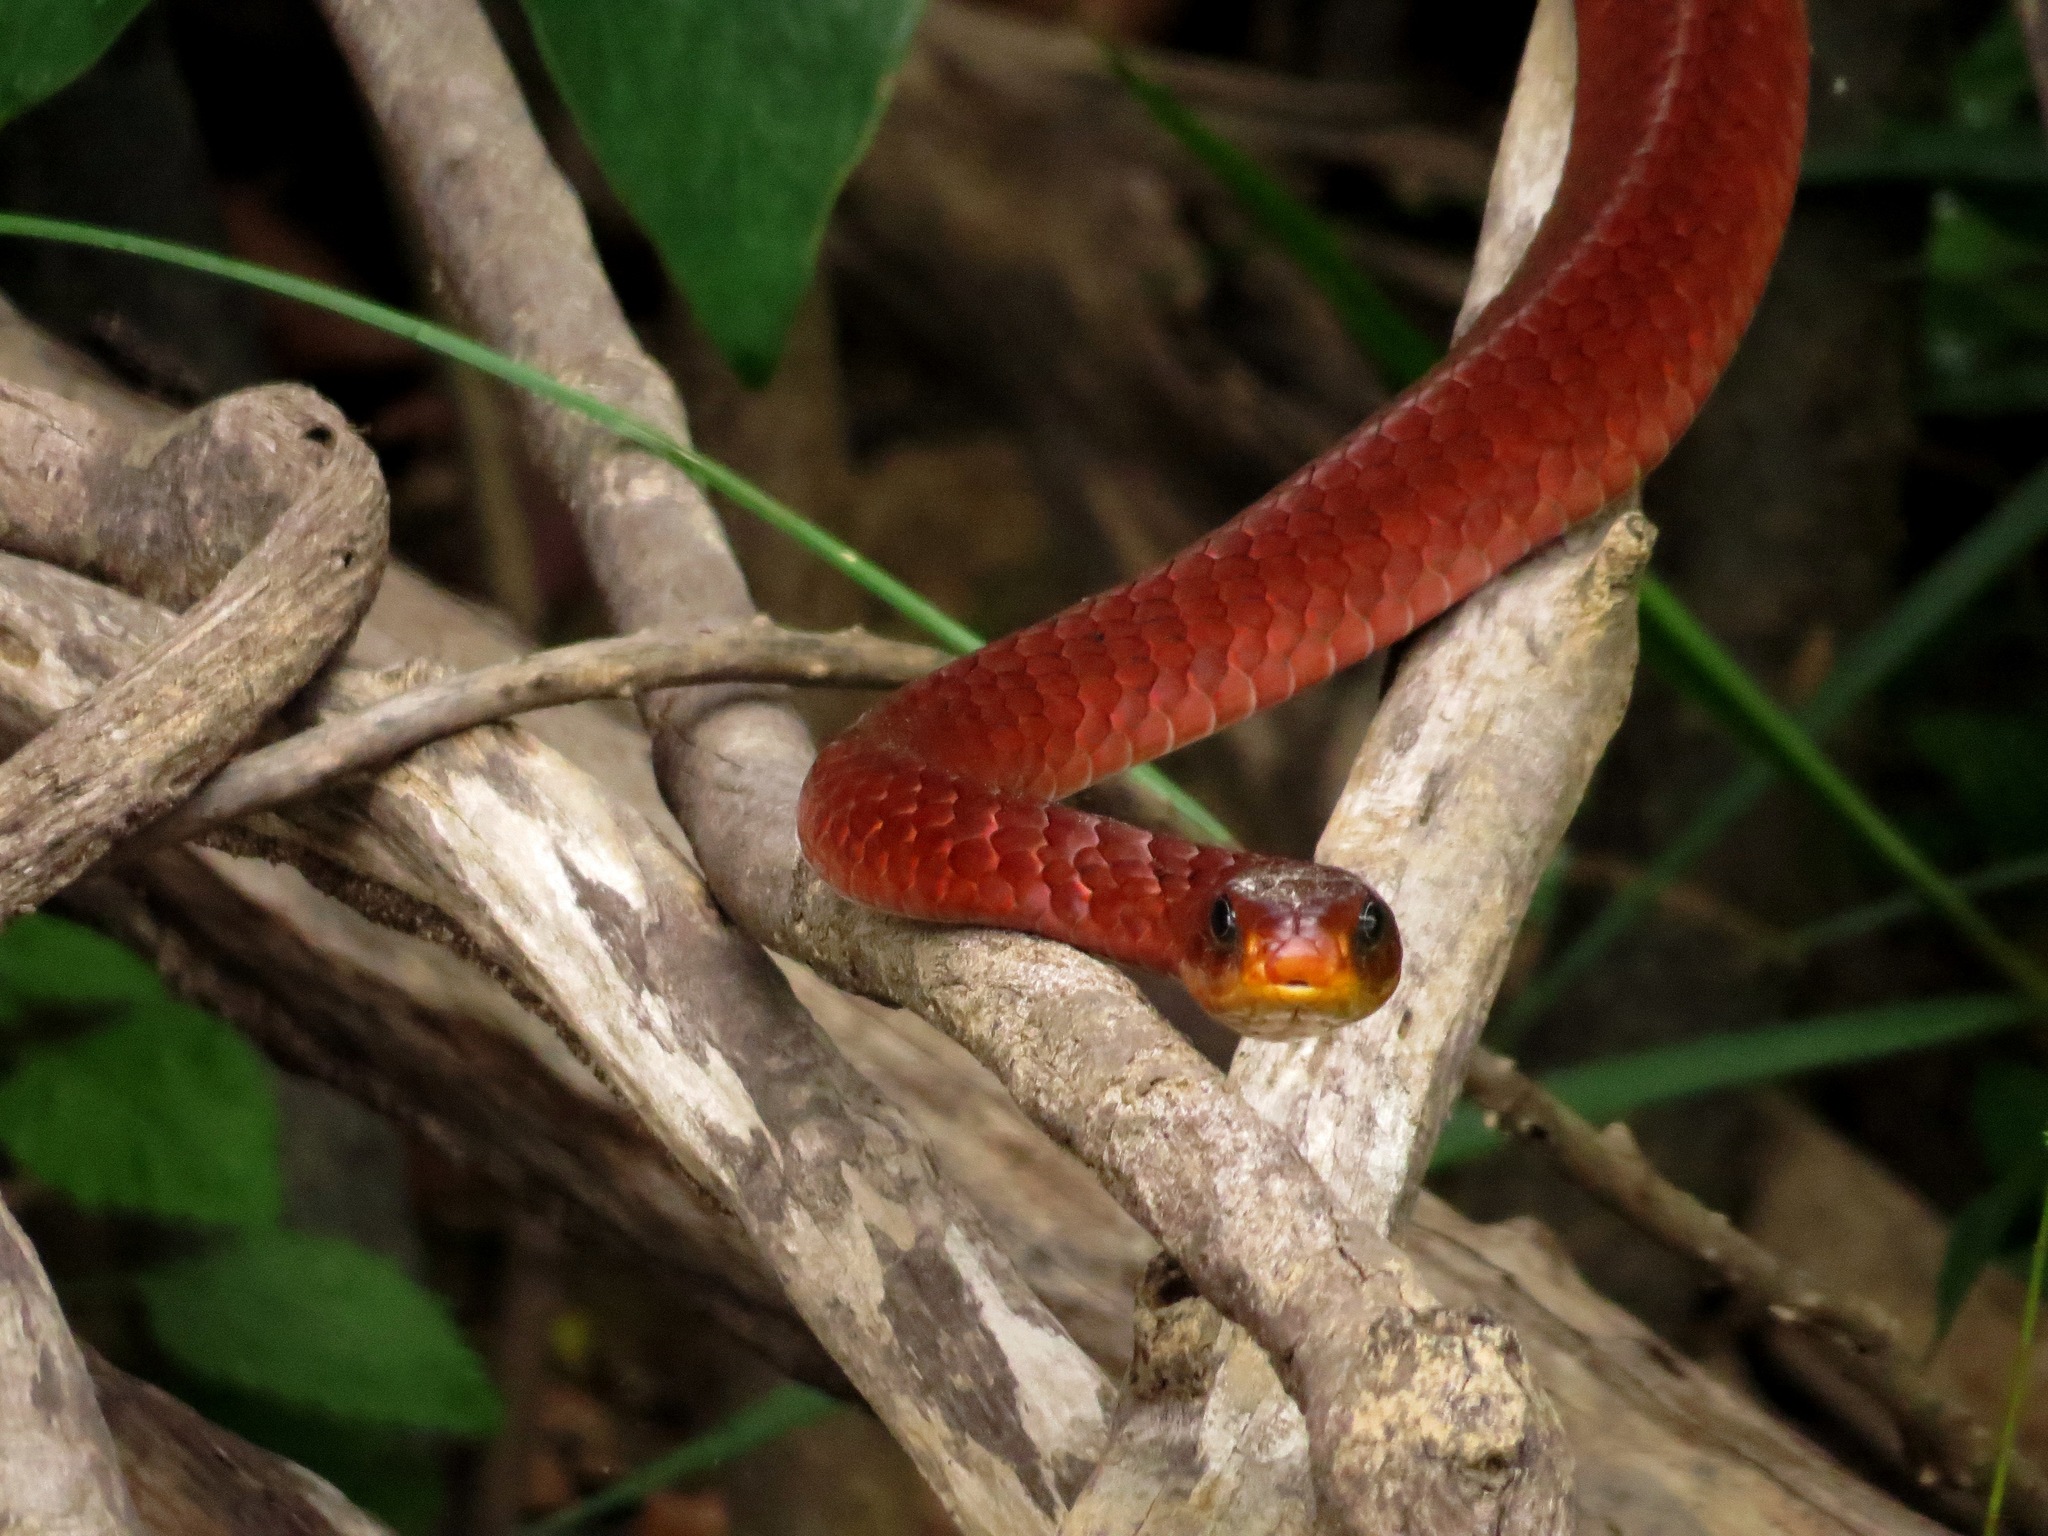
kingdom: Animalia
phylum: Chordata
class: Squamata
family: Colubridae
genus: Chironius
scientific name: Chironius scurrulus
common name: Wagler's sipo
